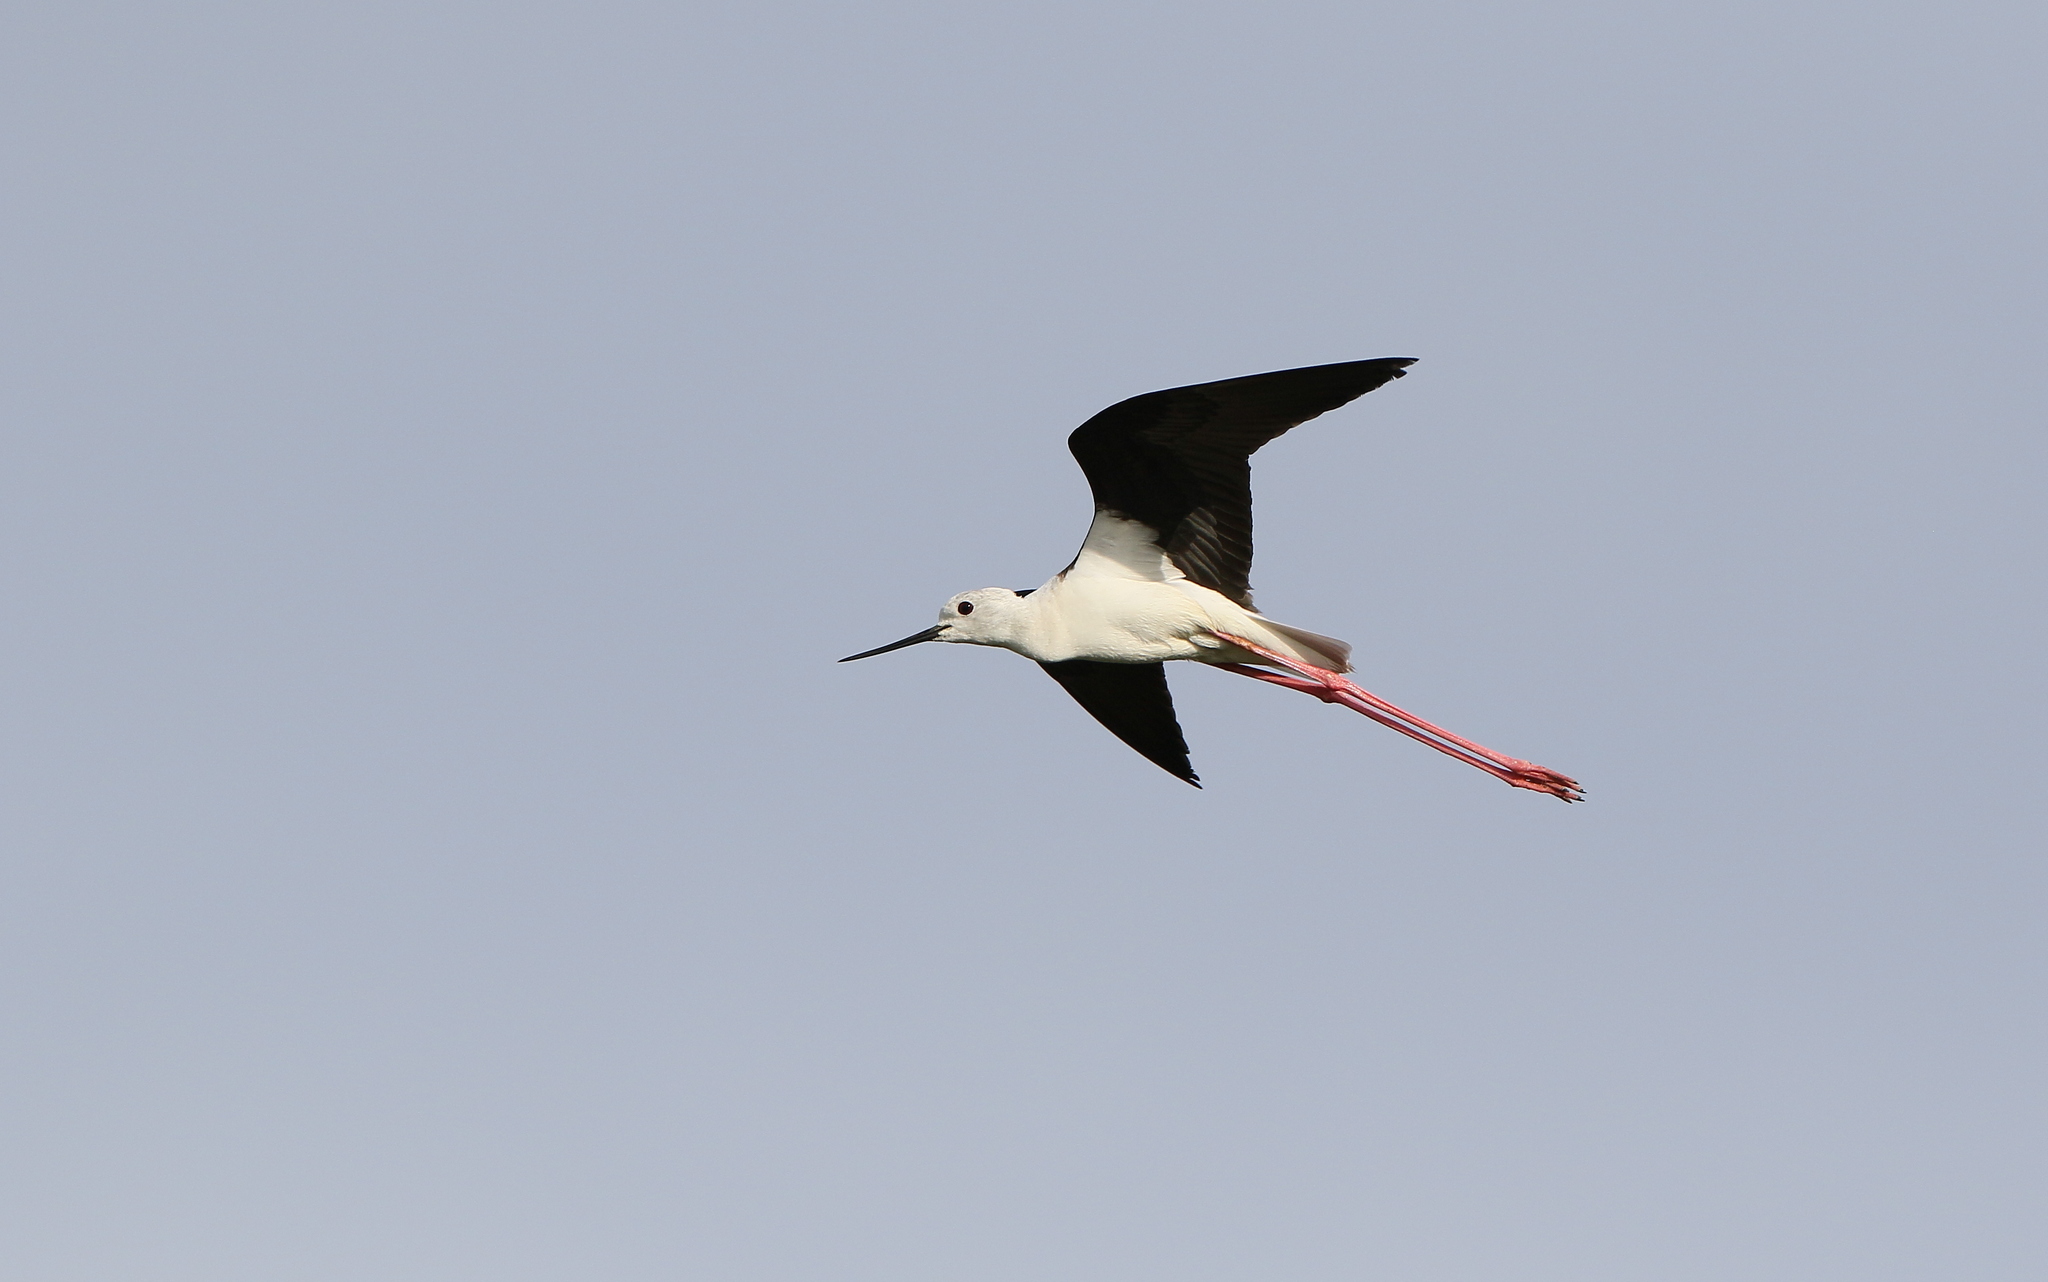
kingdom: Animalia
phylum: Chordata
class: Aves
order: Charadriiformes
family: Recurvirostridae
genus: Himantopus
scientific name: Himantopus himantopus
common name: Black-winged stilt
